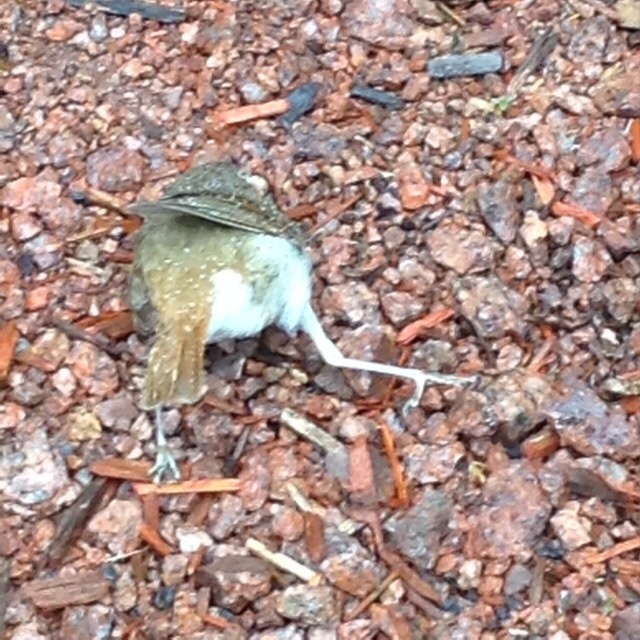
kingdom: Animalia
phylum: Chordata
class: Aves
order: Passeriformes
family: Turdidae
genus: Catharus
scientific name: Catharus guttatus
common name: Hermit thrush
